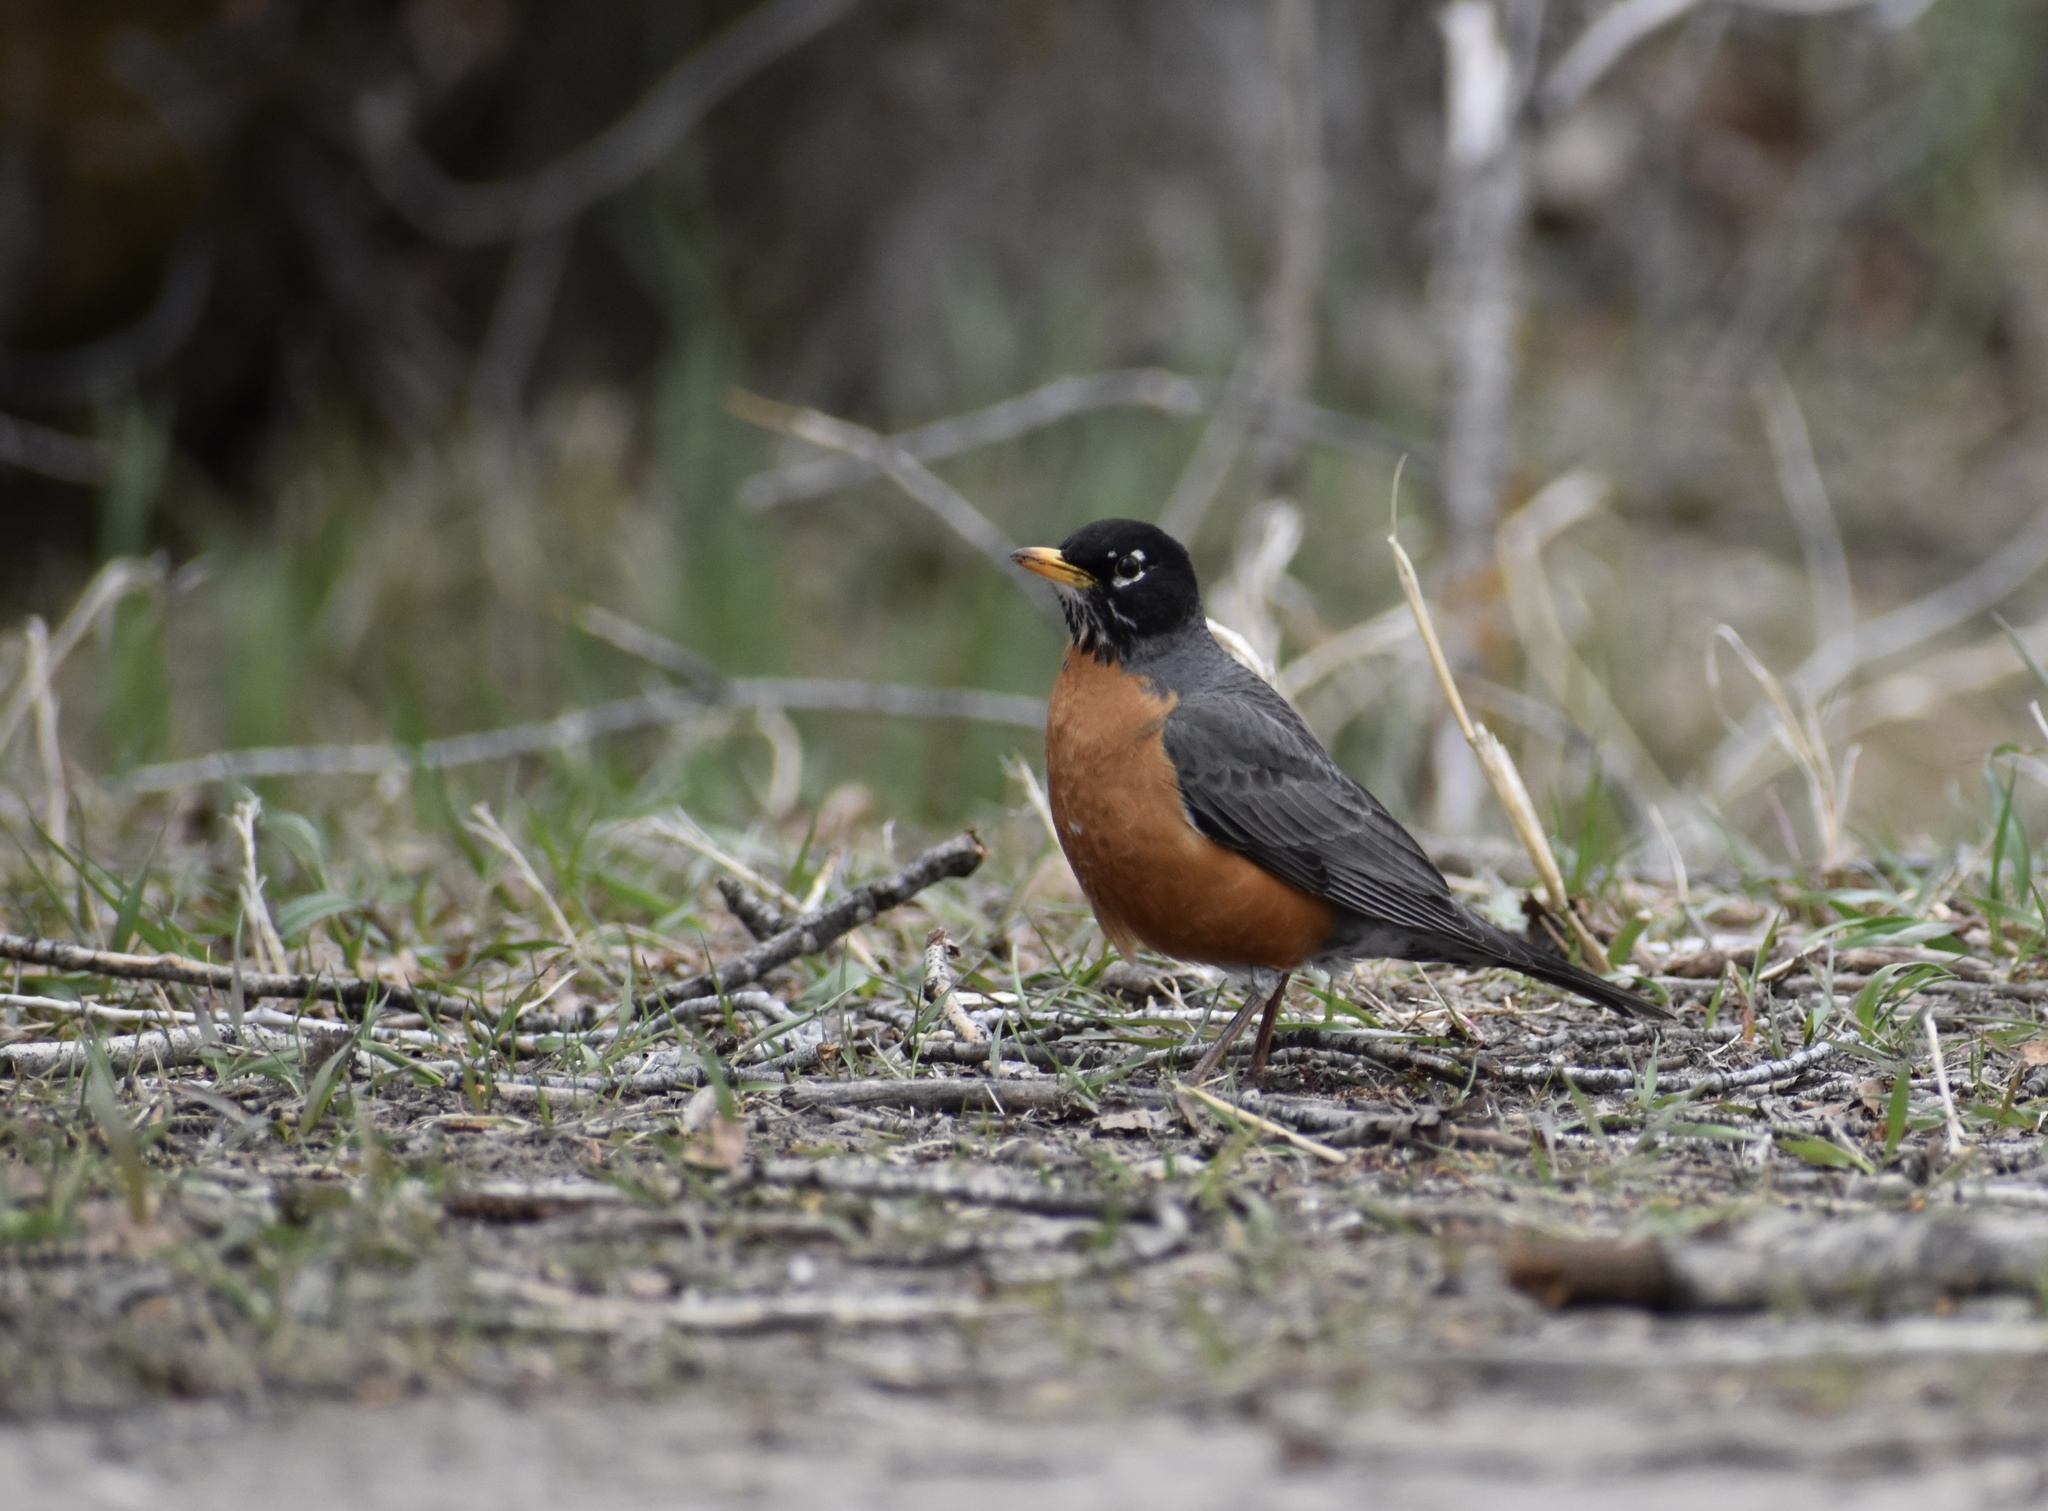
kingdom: Animalia
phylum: Chordata
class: Aves
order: Passeriformes
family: Turdidae
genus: Turdus
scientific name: Turdus migratorius
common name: American robin
